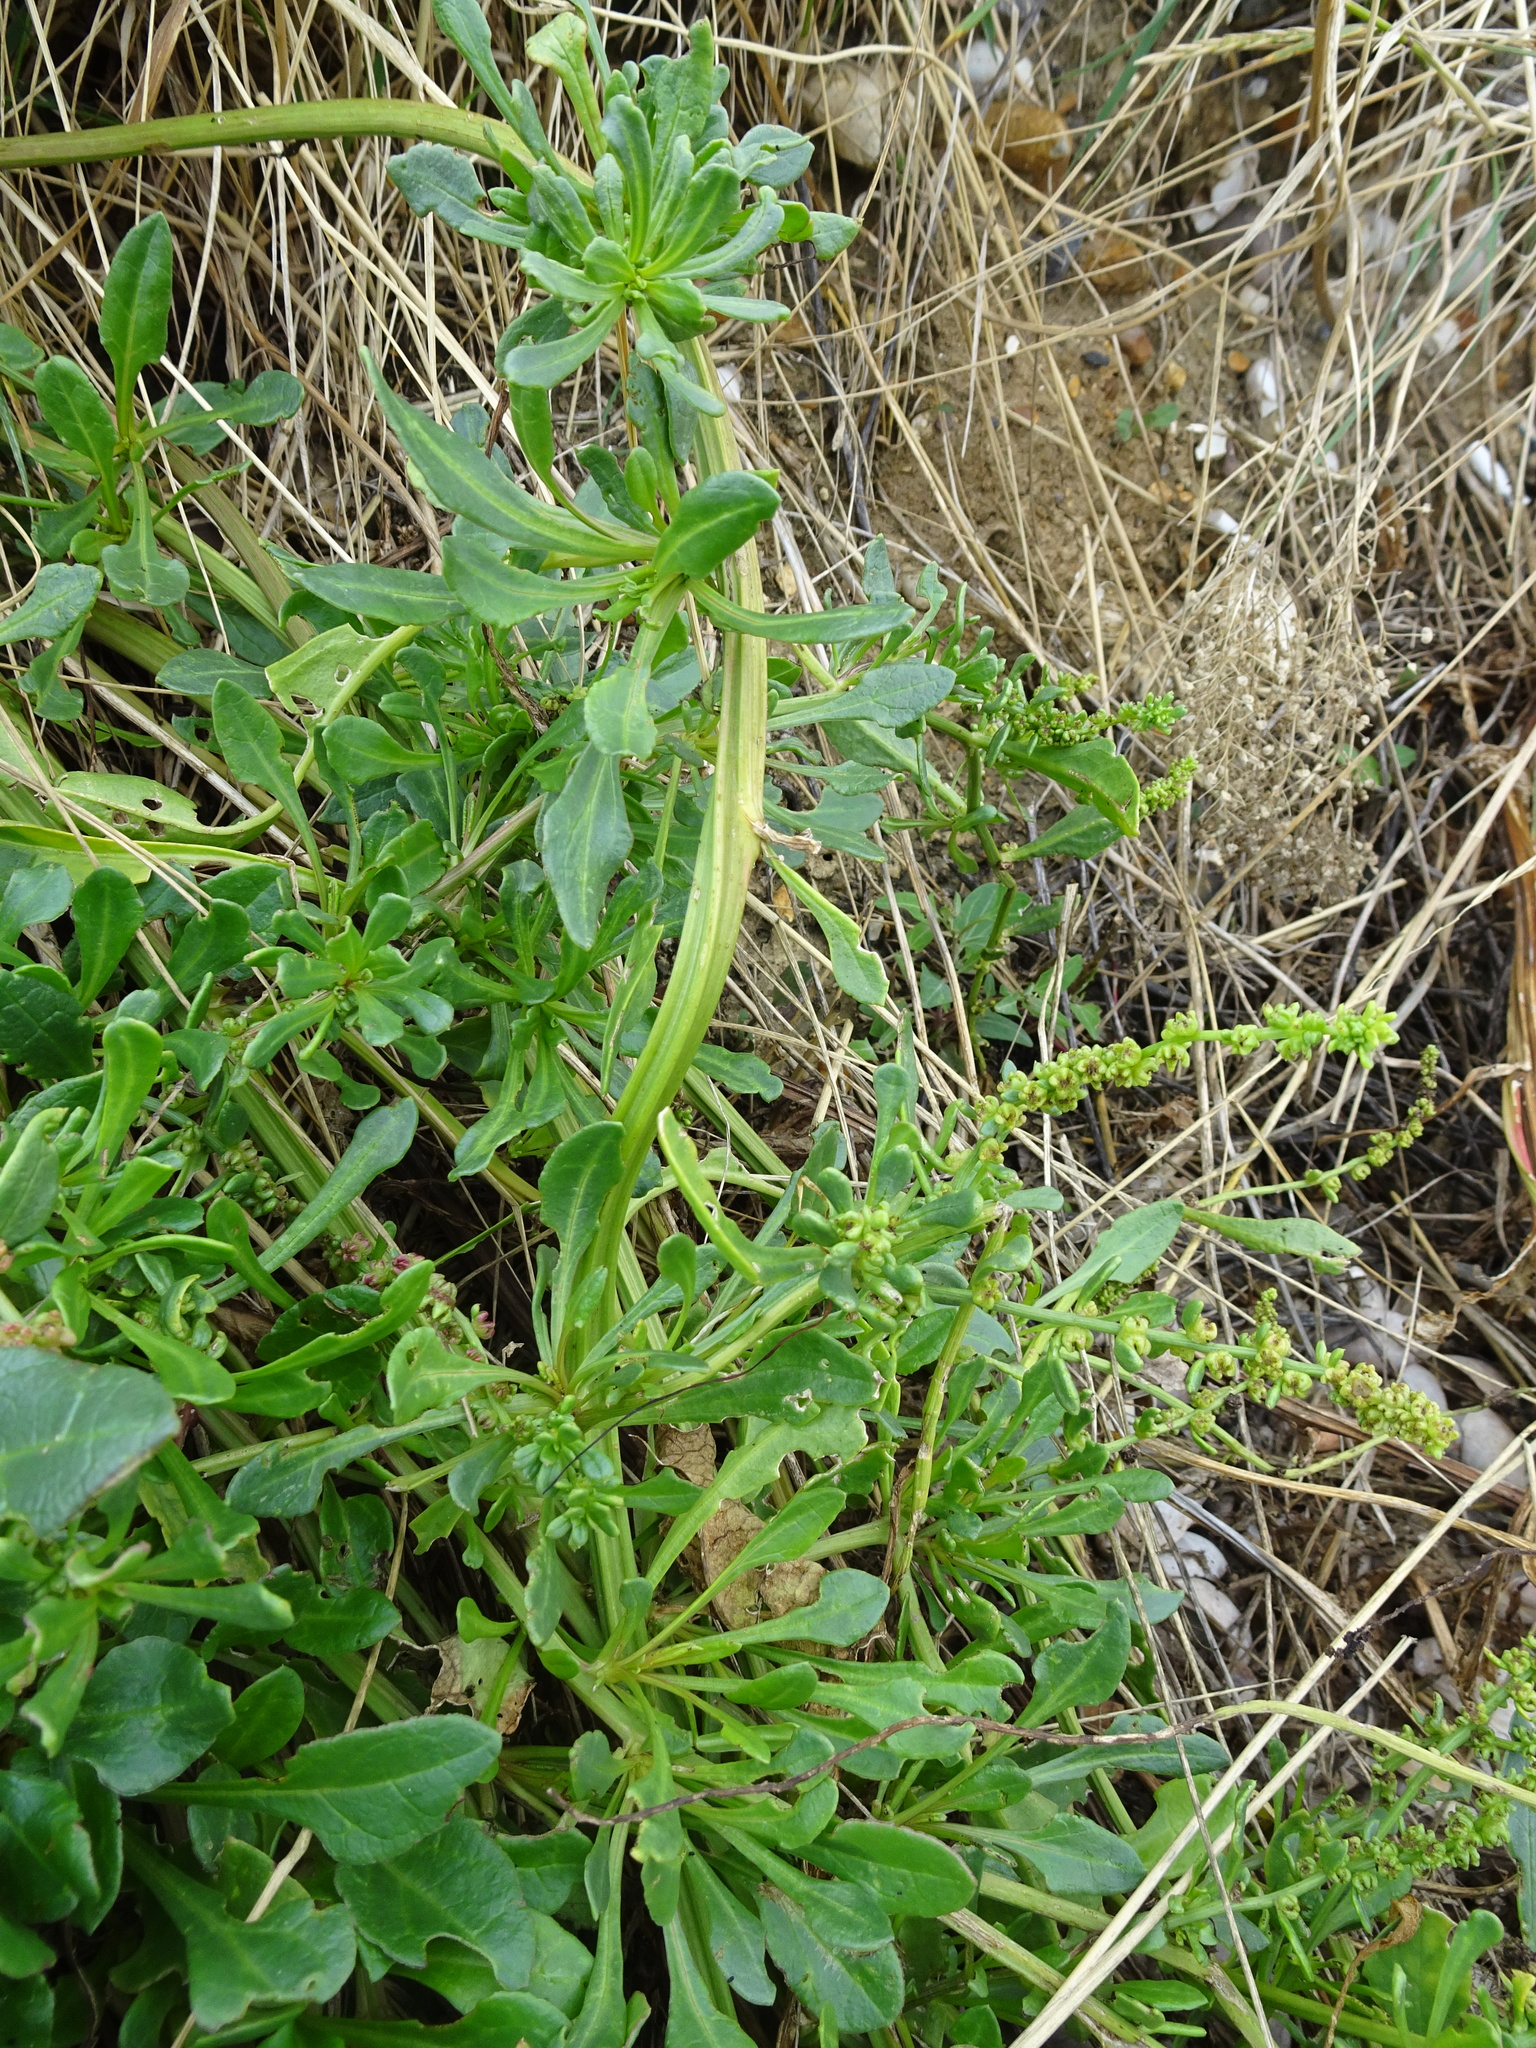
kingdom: Plantae
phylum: Tracheophyta
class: Magnoliopsida
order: Caryophyllales
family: Amaranthaceae
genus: Beta
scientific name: Beta vulgaris
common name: Beet
